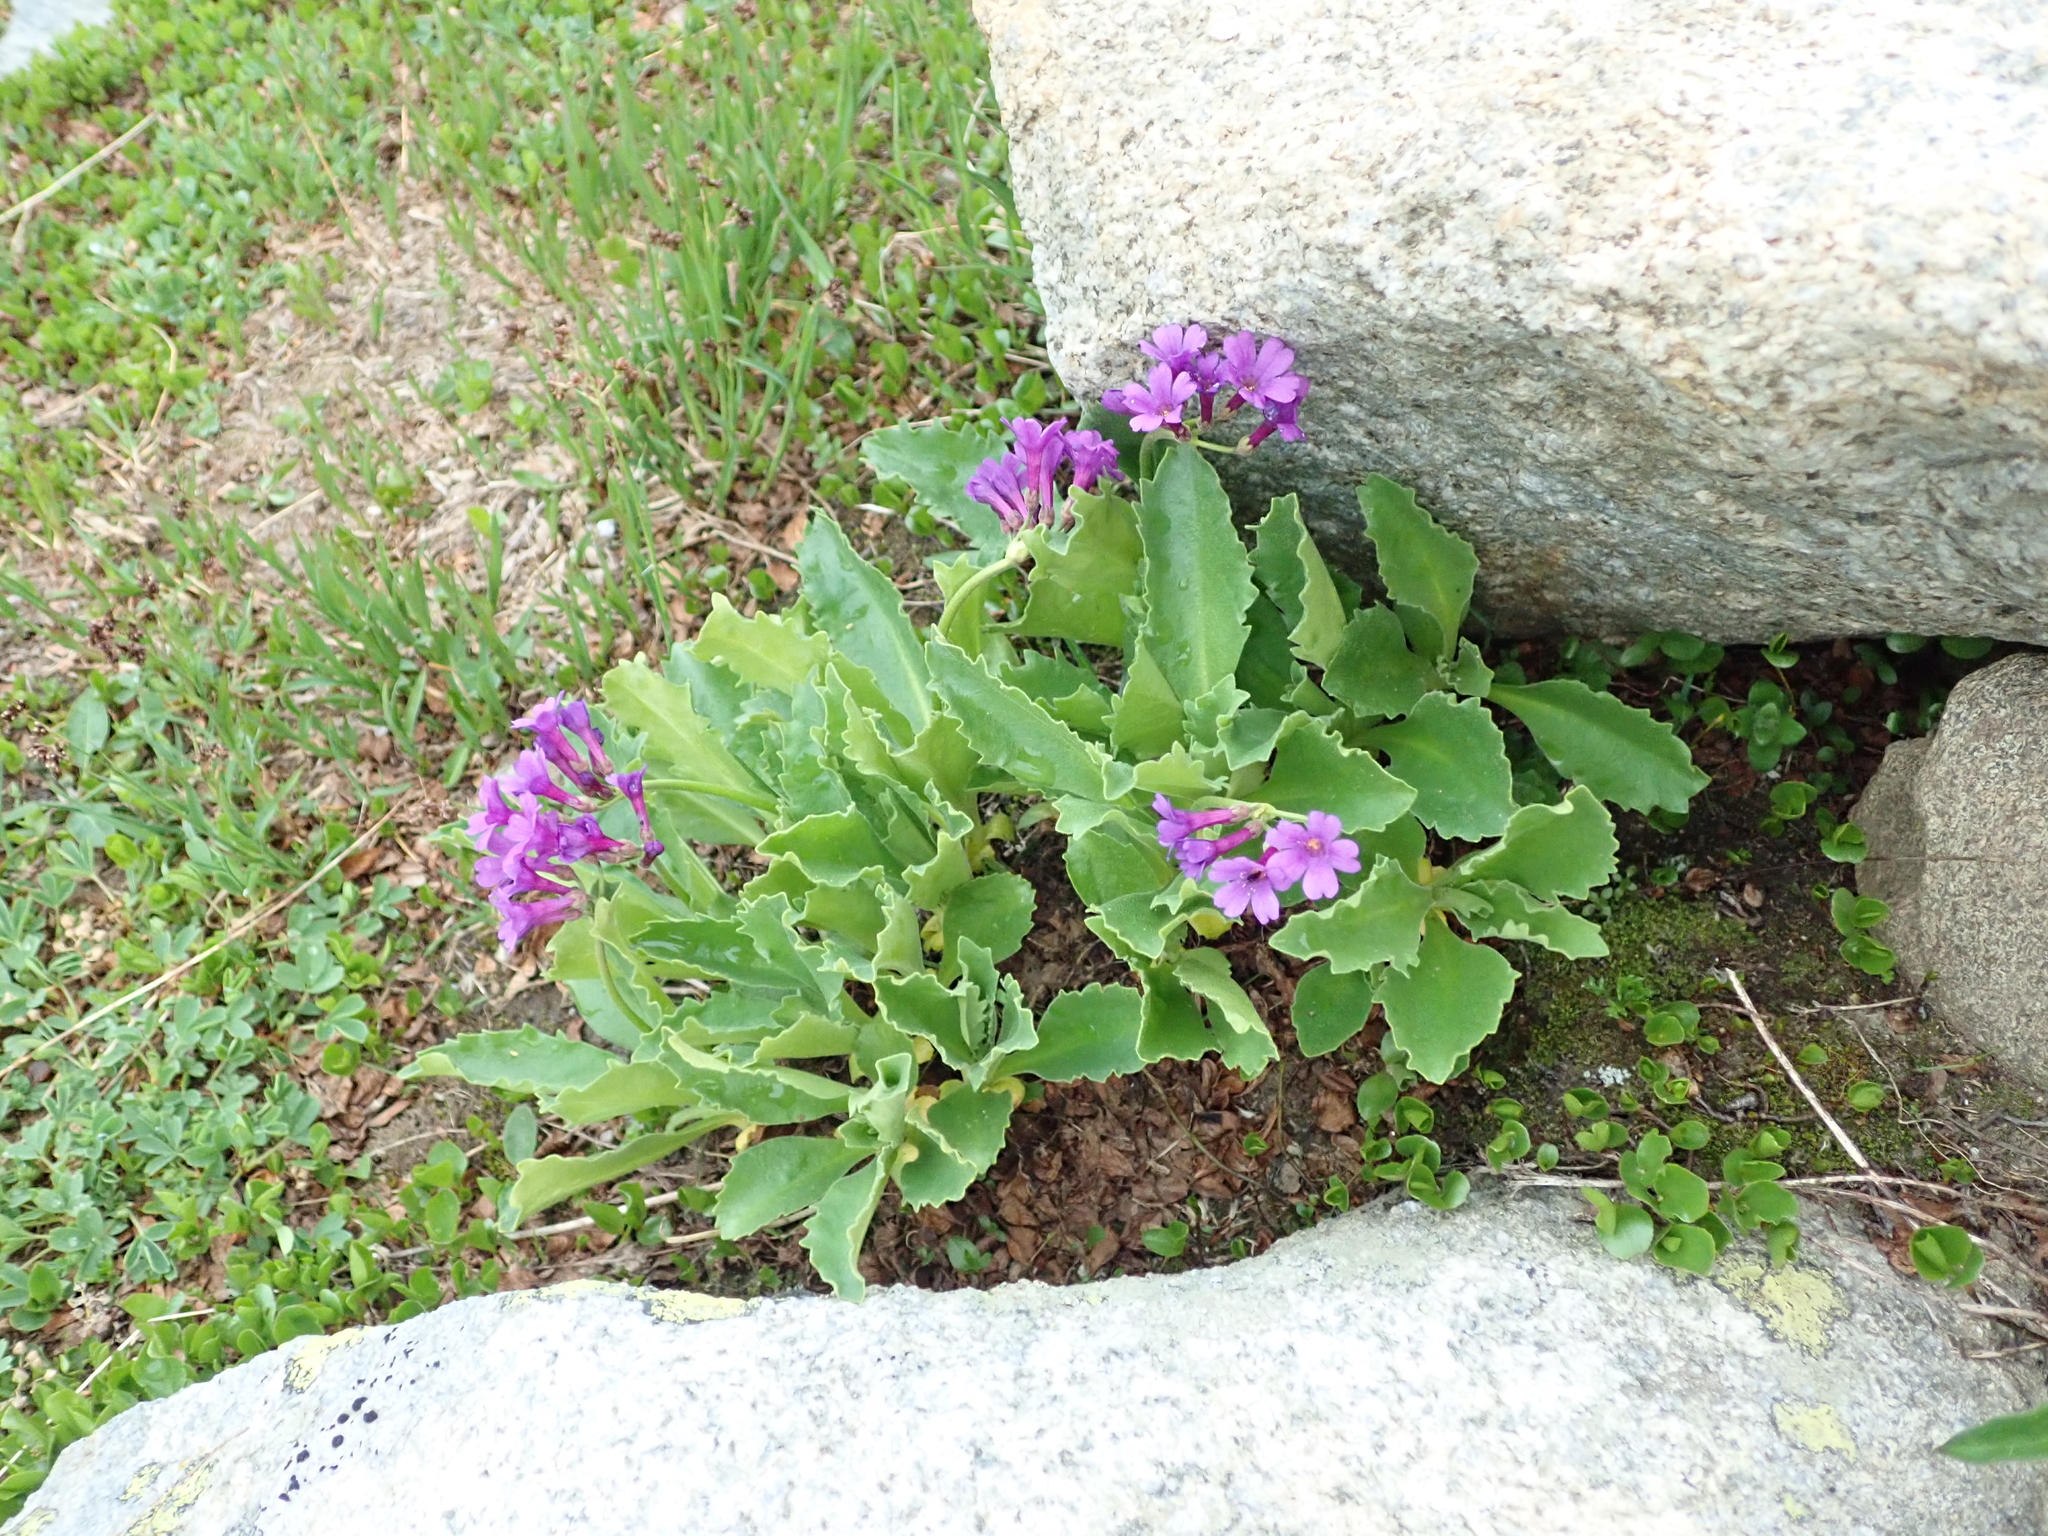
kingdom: Plantae
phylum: Tracheophyta
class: Magnoliopsida
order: Ericales
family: Primulaceae
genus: Primula
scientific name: Primula latifolia
